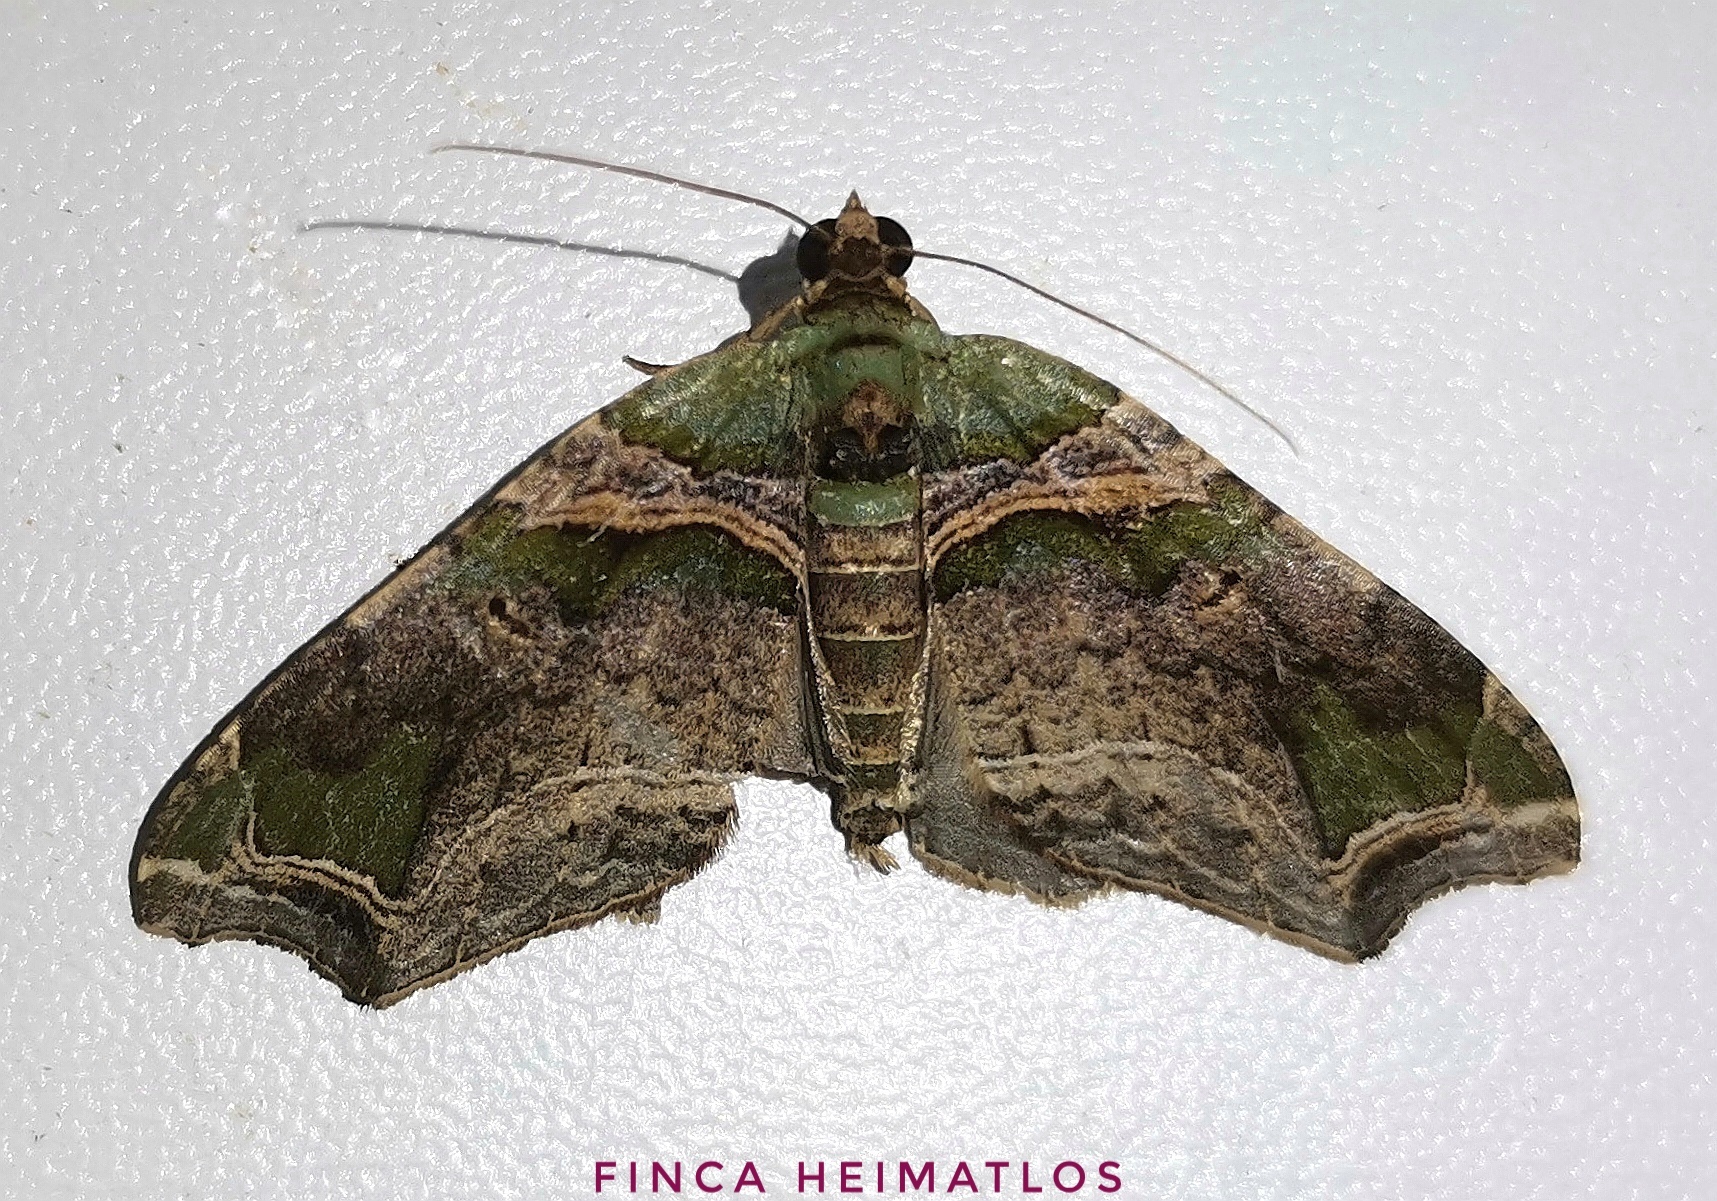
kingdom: Animalia
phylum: Arthropoda
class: Insecta
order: Lepidoptera
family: Geometridae
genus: Oligopleura
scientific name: Oligopleura aulaeata
